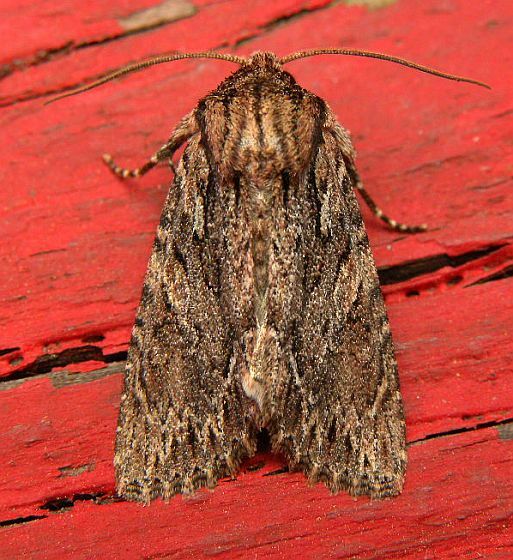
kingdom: Animalia
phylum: Arthropoda
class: Insecta
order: Lepidoptera
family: Noctuidae
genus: Achatia
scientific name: Achatia confusa
